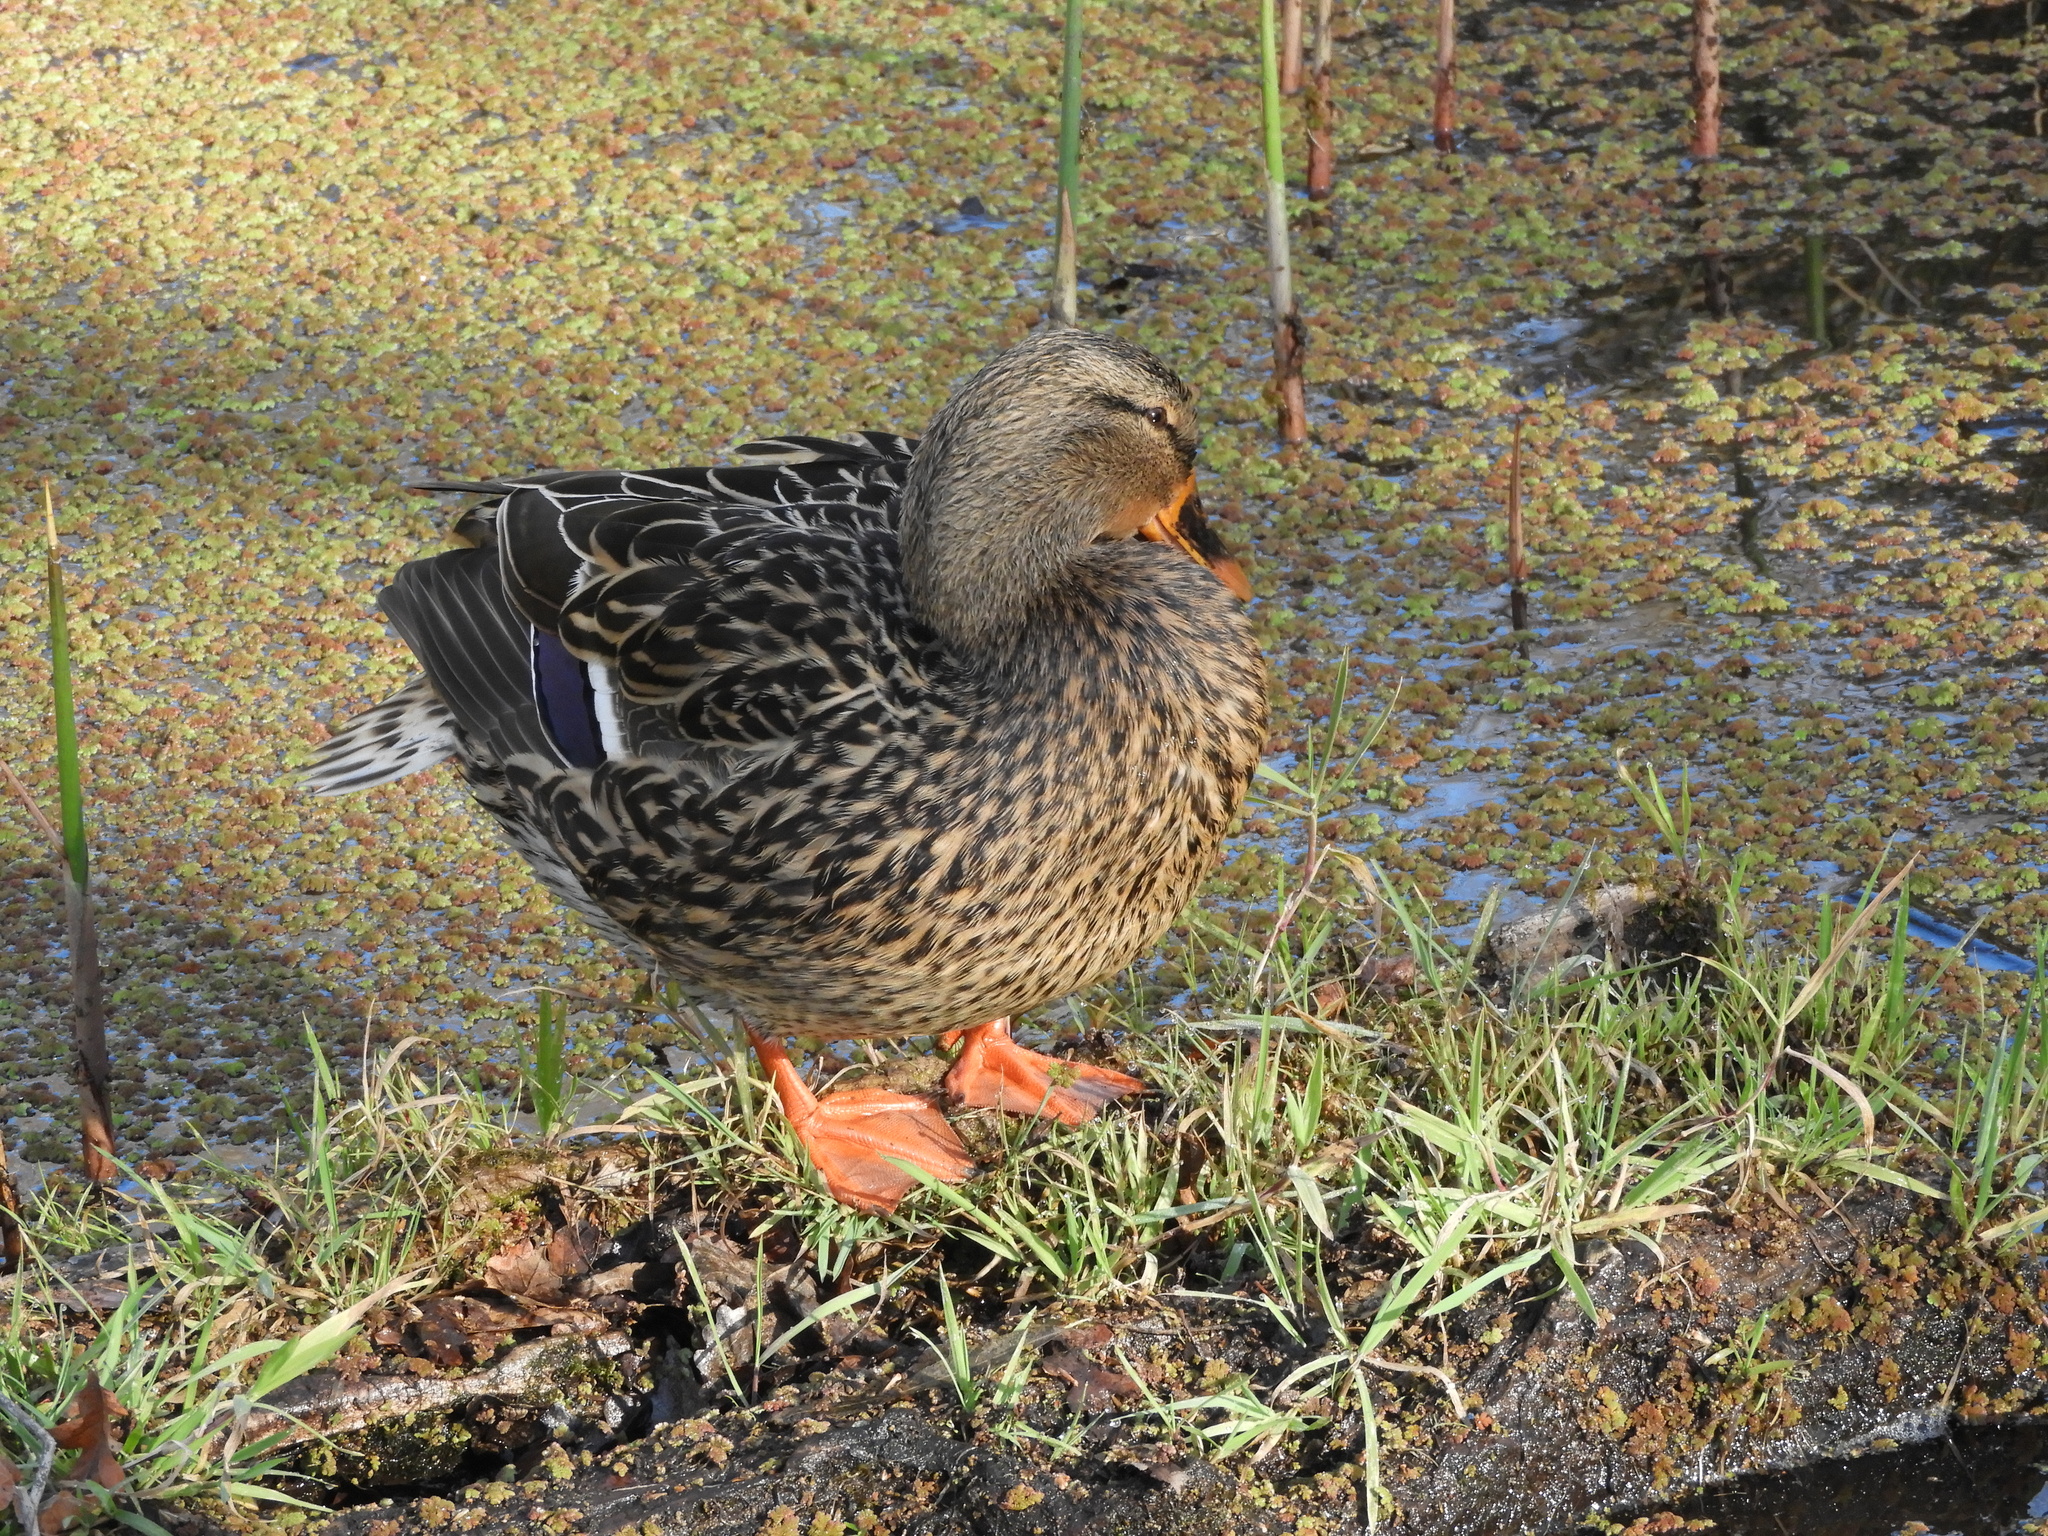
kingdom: Animalia
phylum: Chordata
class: Aves
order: Anseriformes
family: Anatidae
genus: Anas
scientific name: Anas platyrhynchos
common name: Mallard
